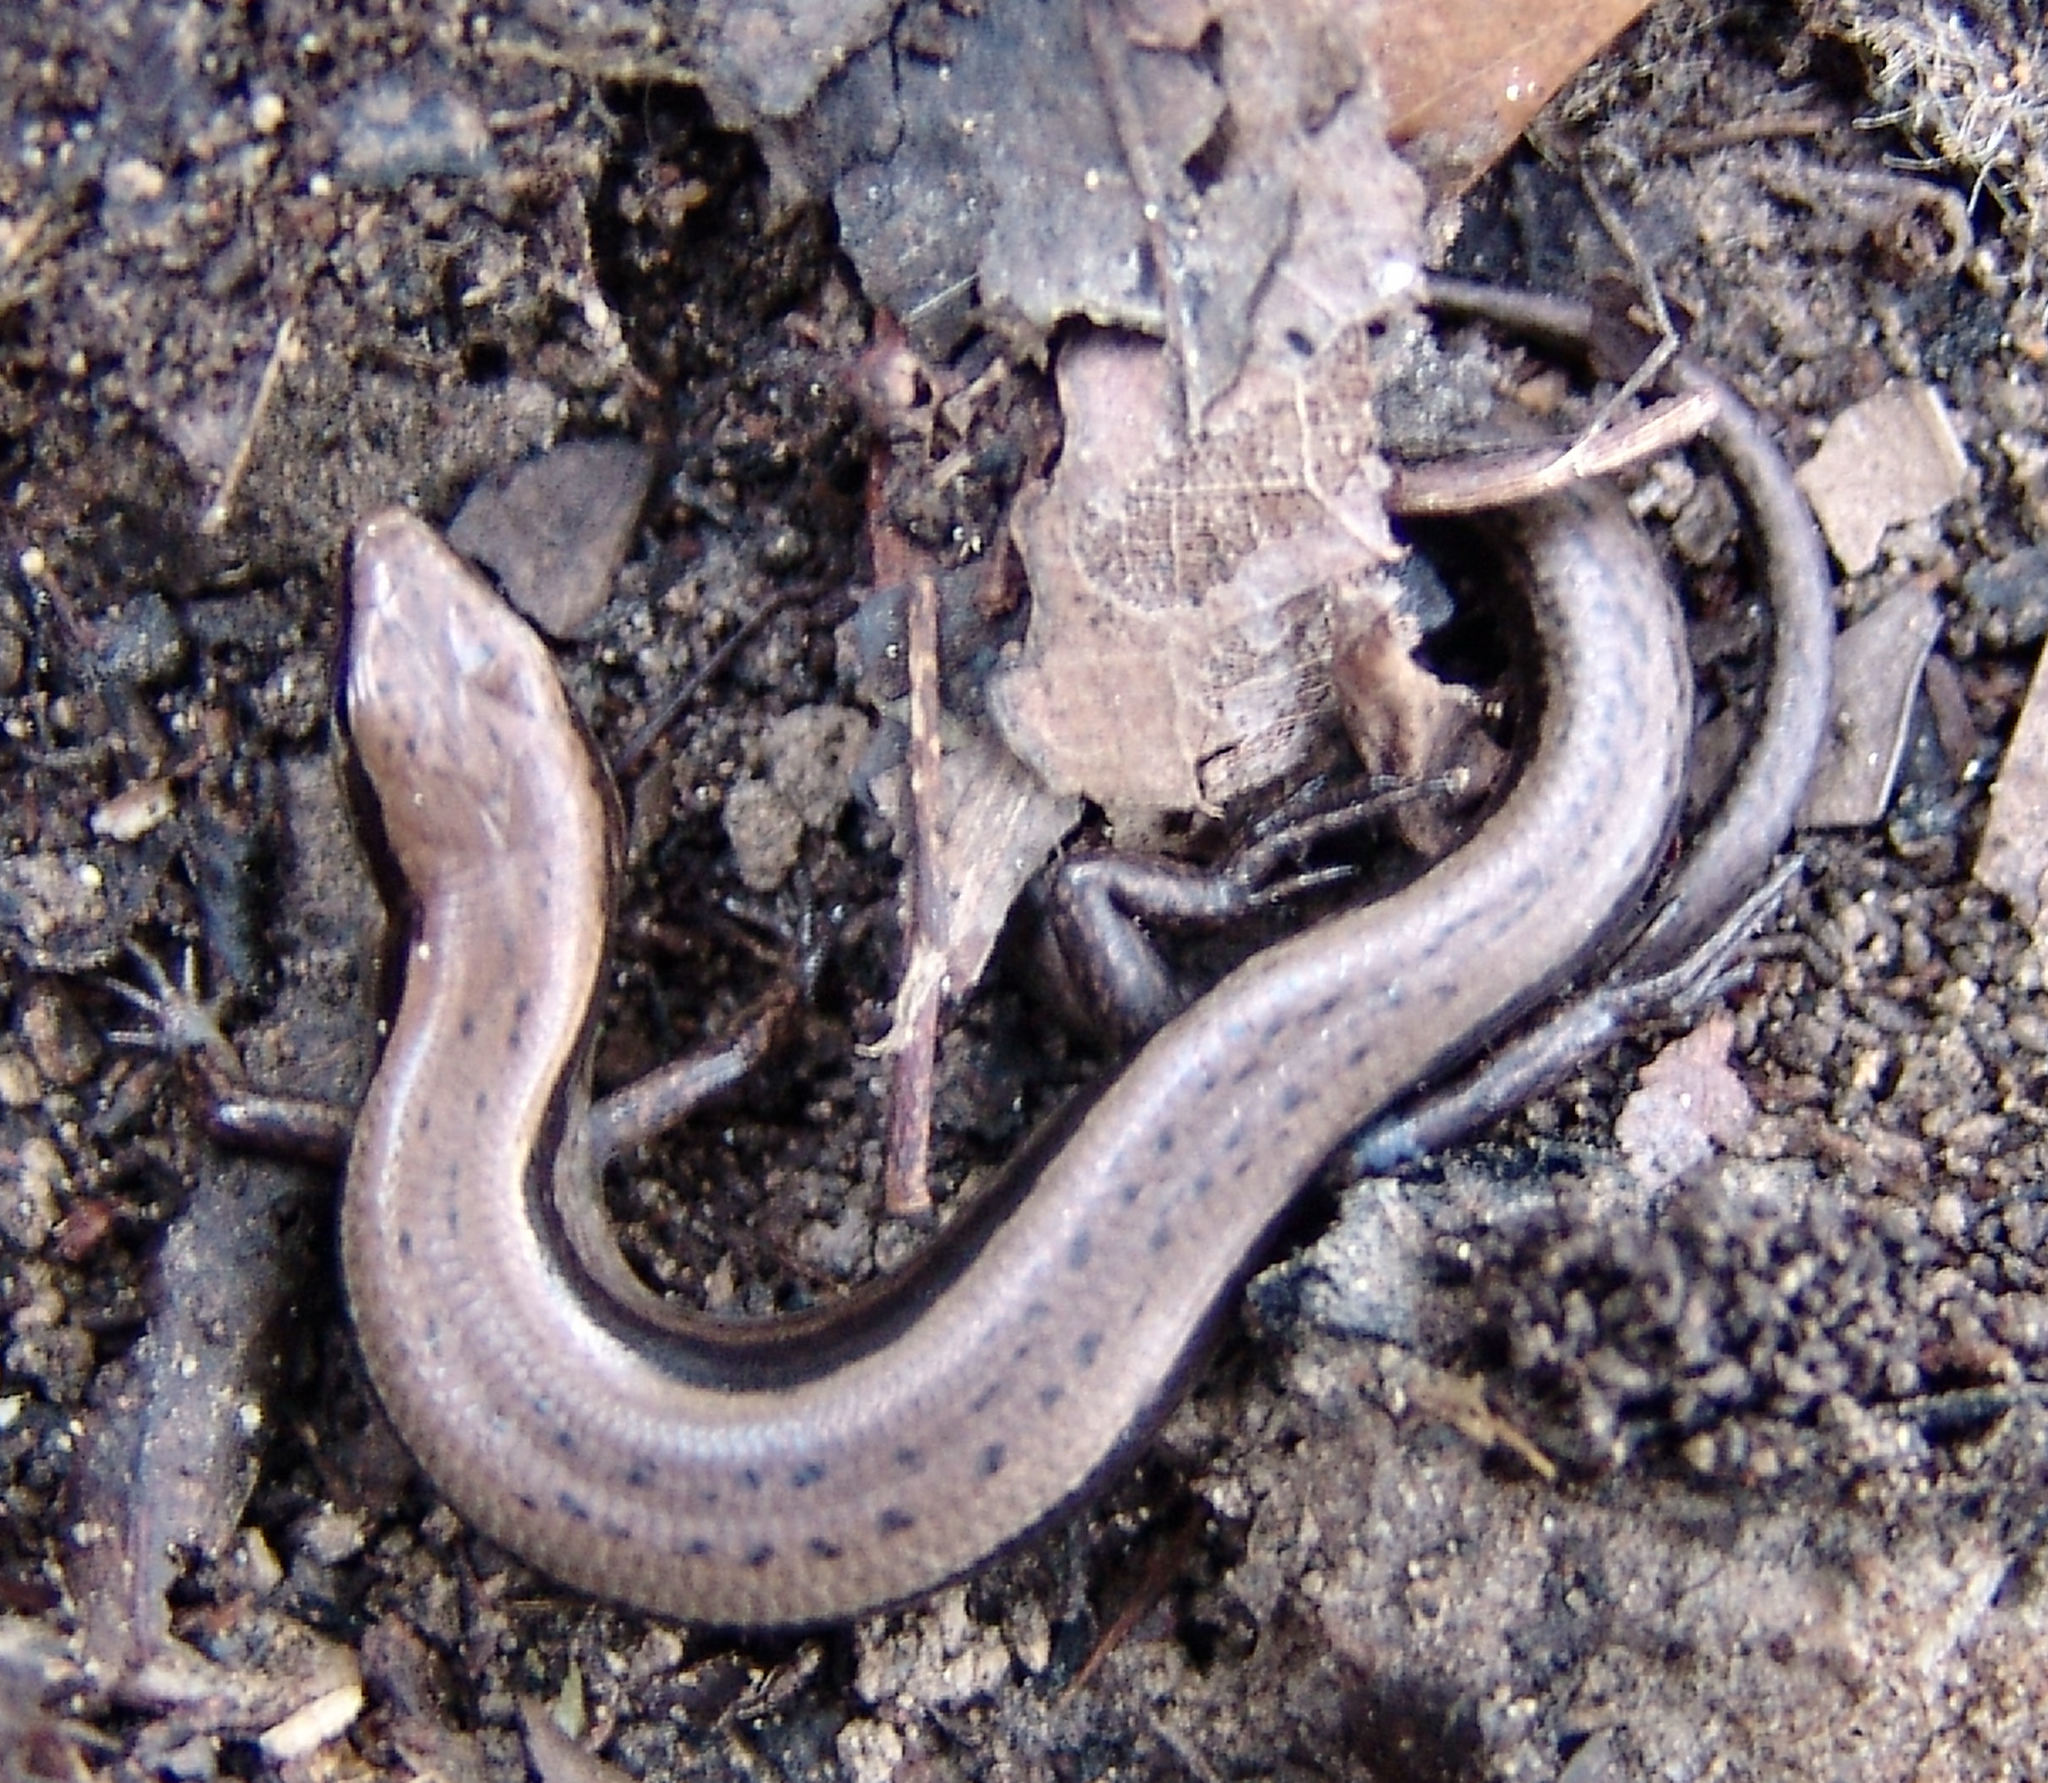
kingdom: Animalia
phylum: Chordata
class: Squamata
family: Scincidae
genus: Scincella
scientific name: Scincella lateralis
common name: Ground skink
